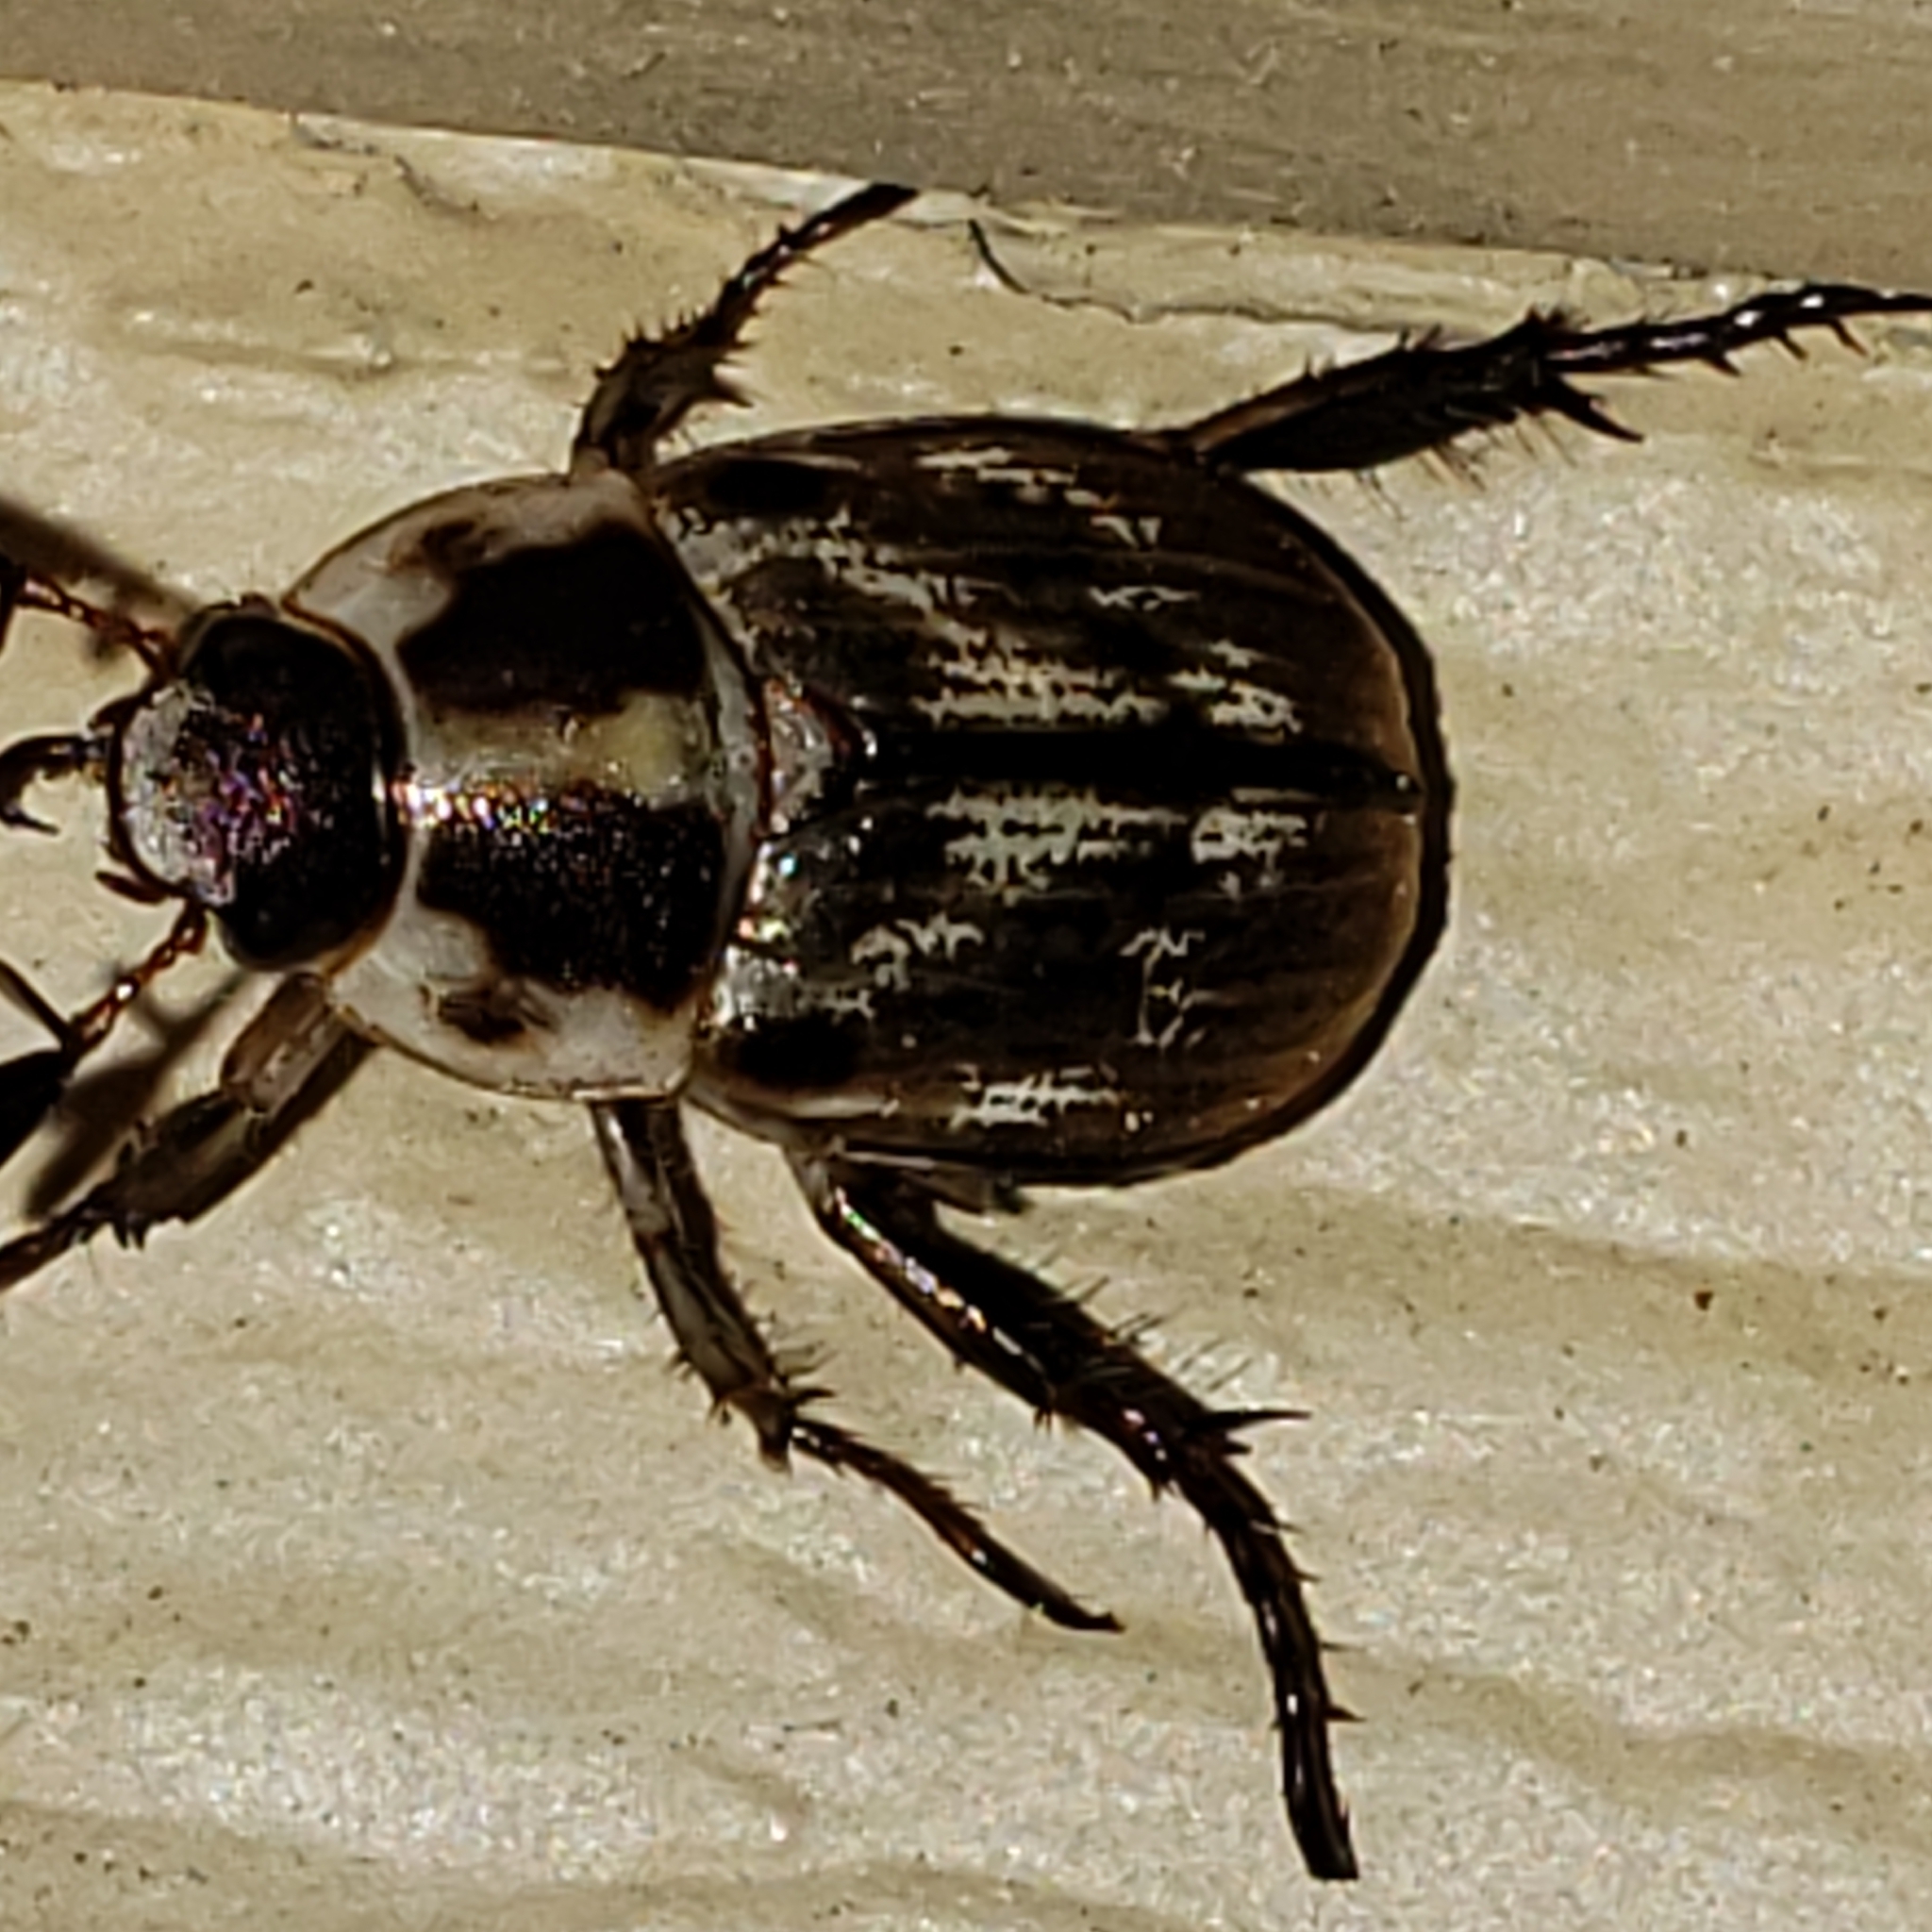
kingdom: Animalia
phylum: Arthropoda
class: Insecta
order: Coleoptera
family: Scarabaeidae
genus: Exomala
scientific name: Exomala orientalis
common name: Oriental beetle
